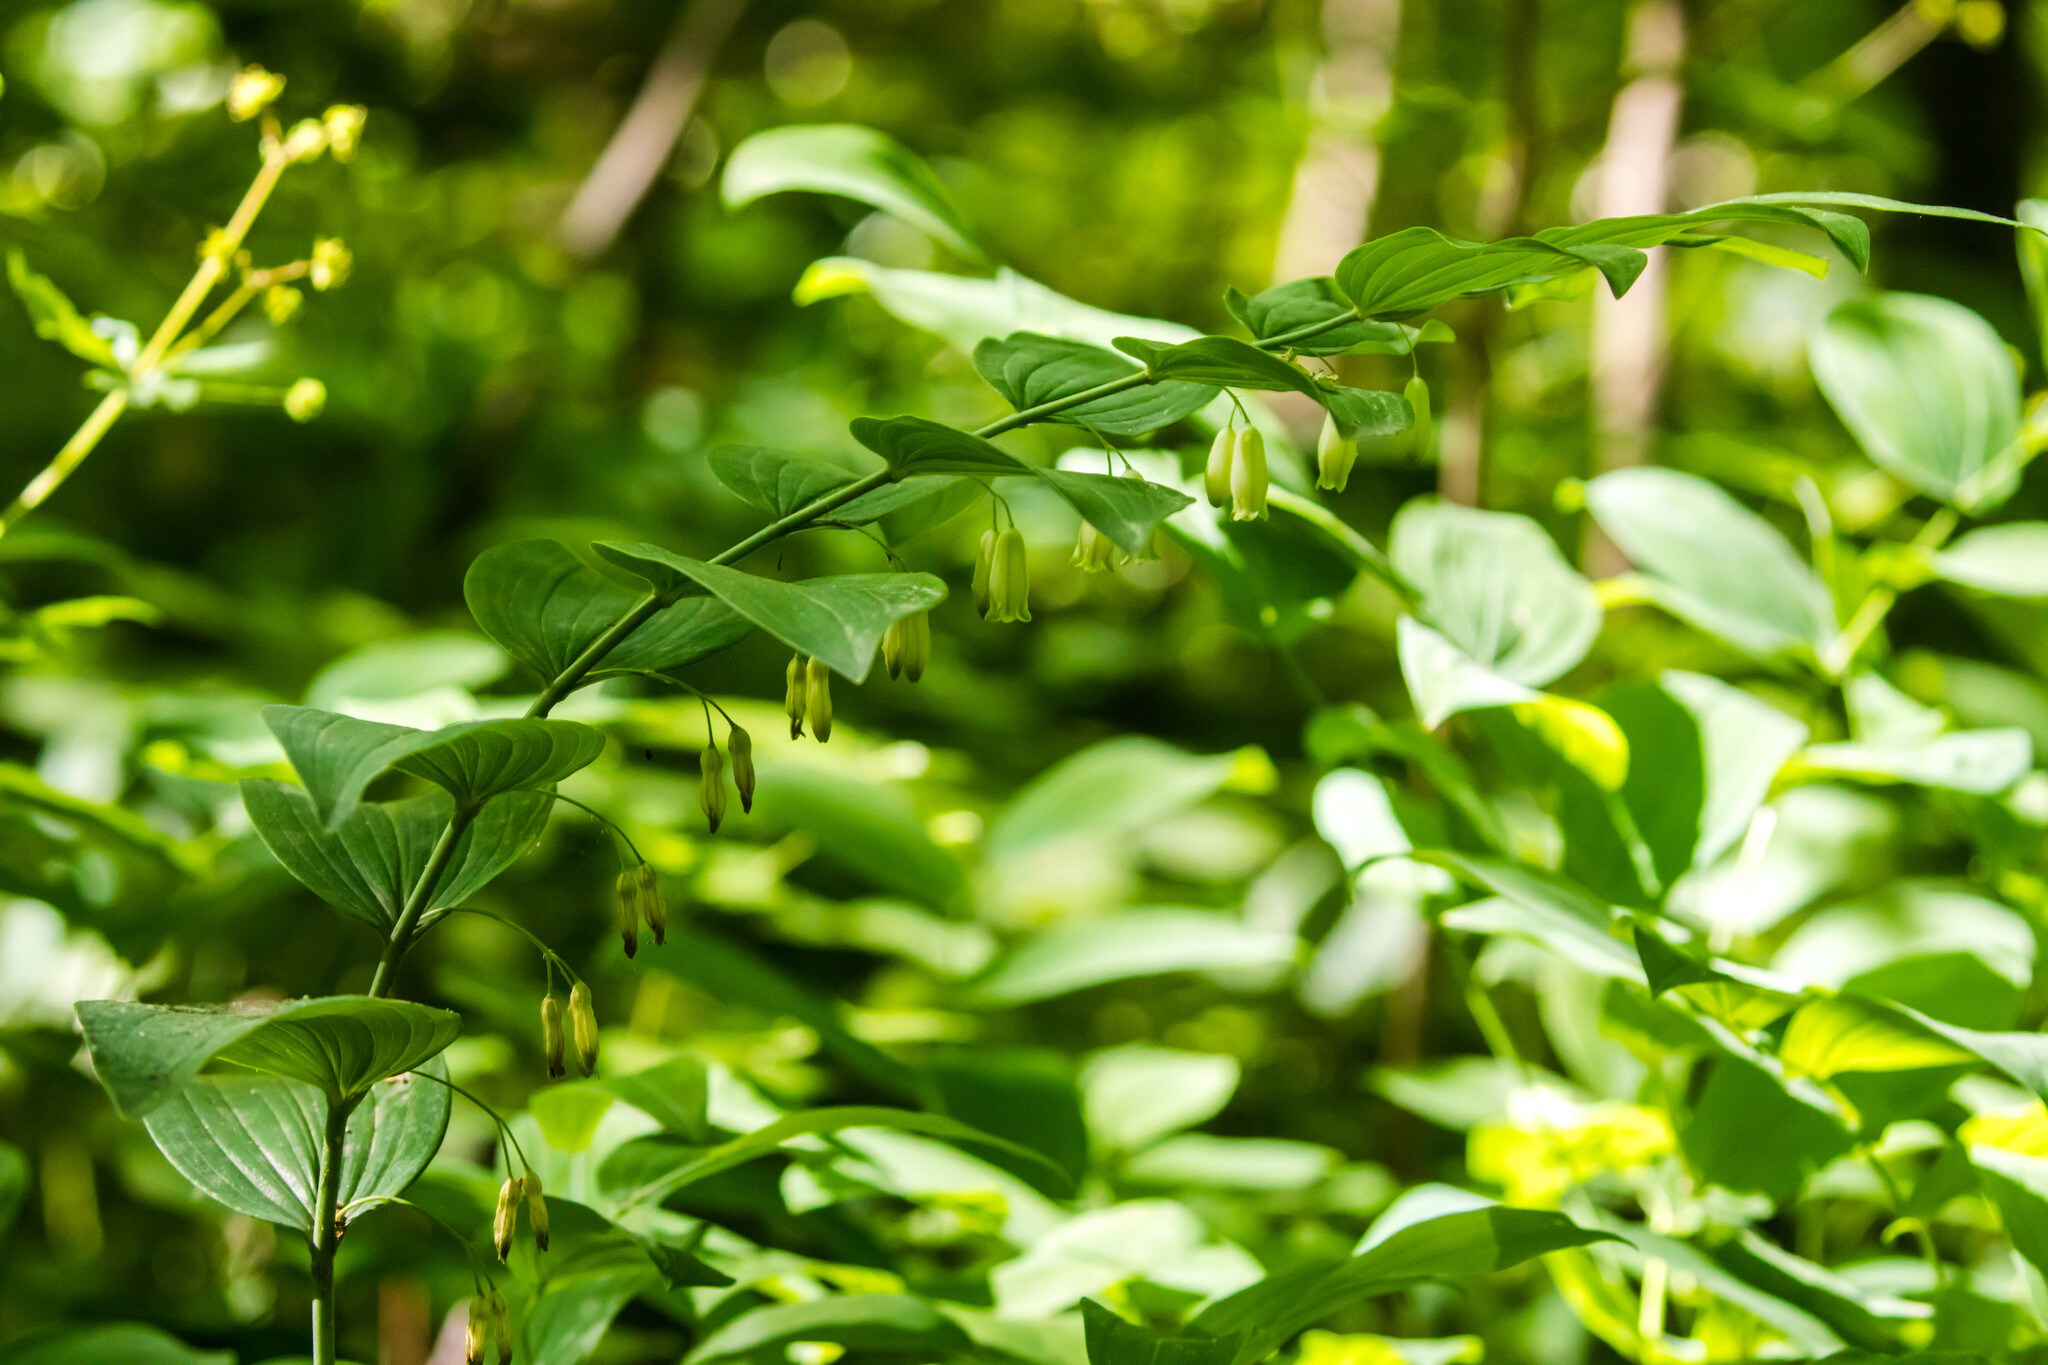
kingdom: Plantae
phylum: Tracheophyta
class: Liliopsida
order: Asparagales
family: Asparagaceae
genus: Polygonatum
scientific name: Polygonatum biflorum
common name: American solomon's-seal
